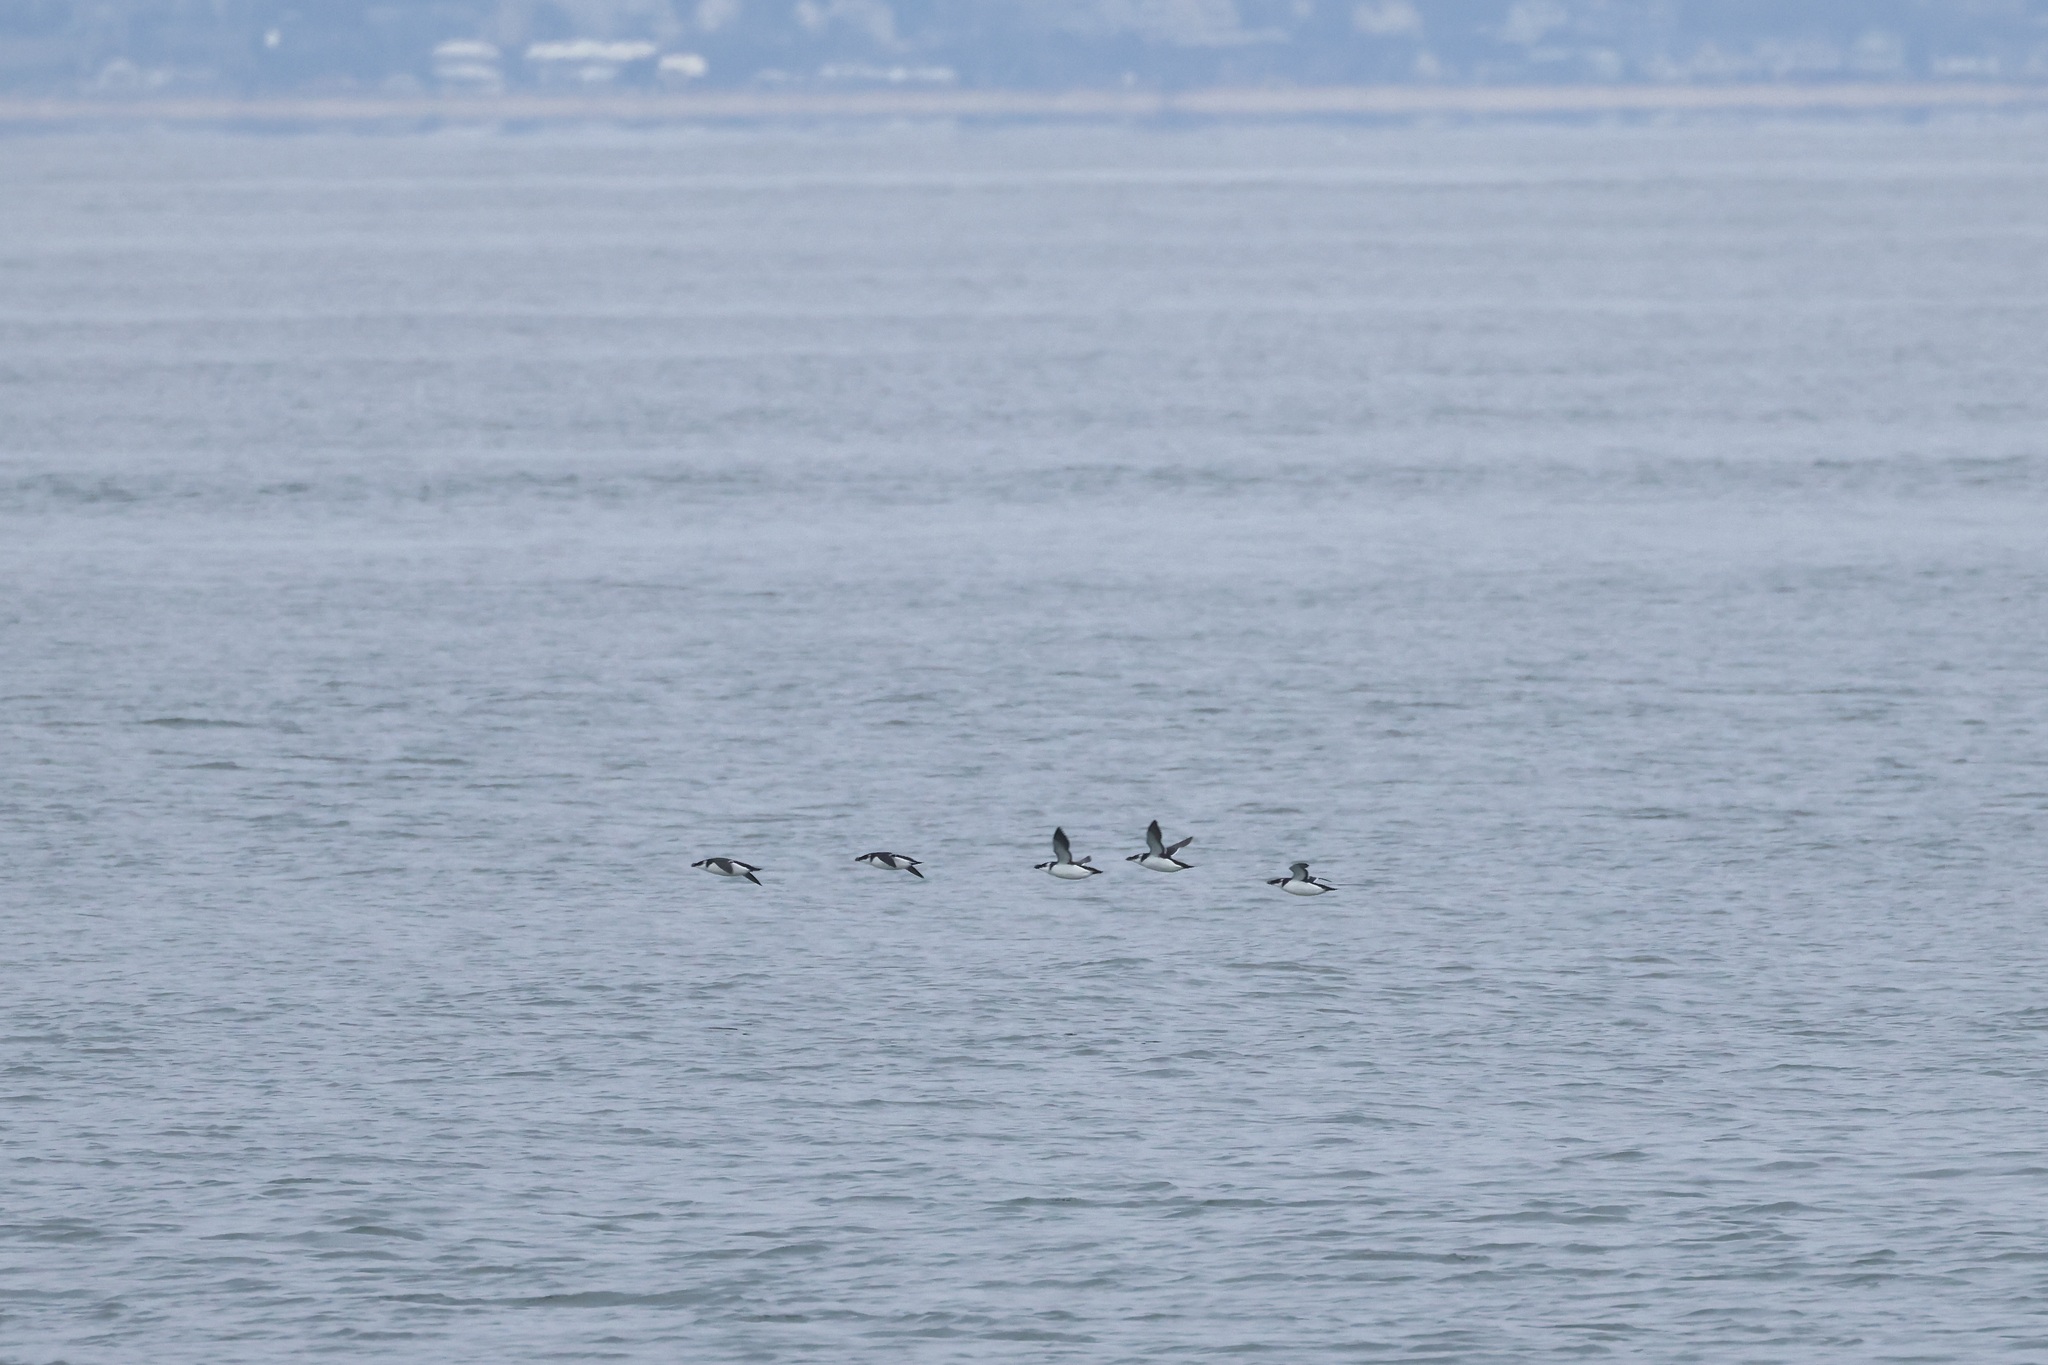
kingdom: Animalia
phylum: Chordata
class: Aves
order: Charadriiformes
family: Alcidae
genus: Alca
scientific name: Alca torda
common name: Razorbill
